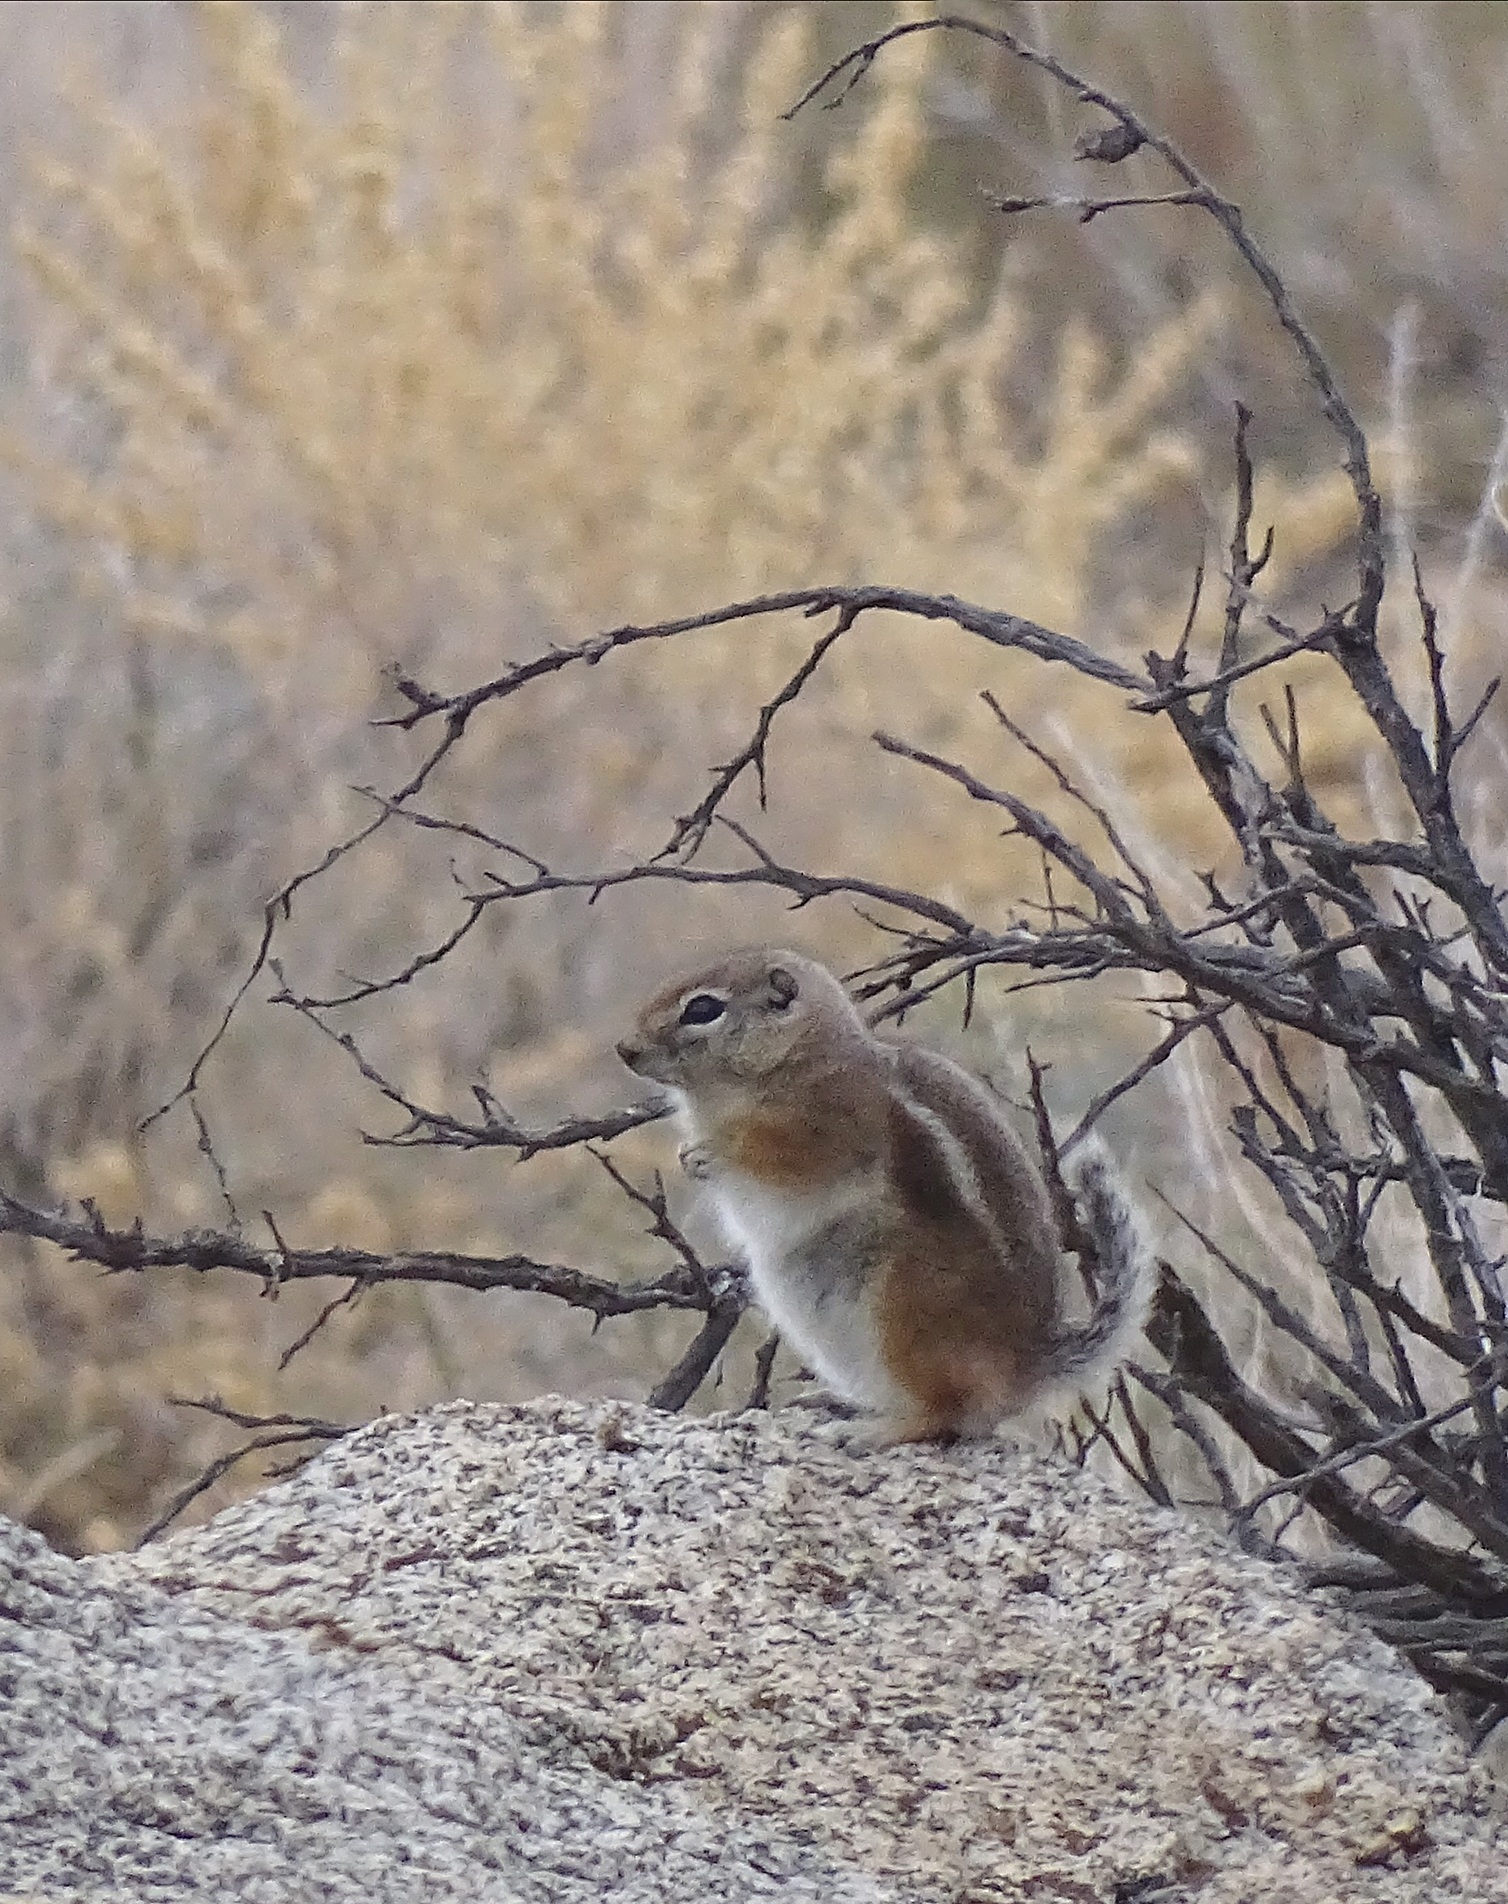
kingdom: Animalia
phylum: Chordata
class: Mammalia
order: Rodentia
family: Sciuridae
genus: Ammospermophilus
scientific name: Ammospermophilus leucurus
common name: White-tailed antelope squirrel
